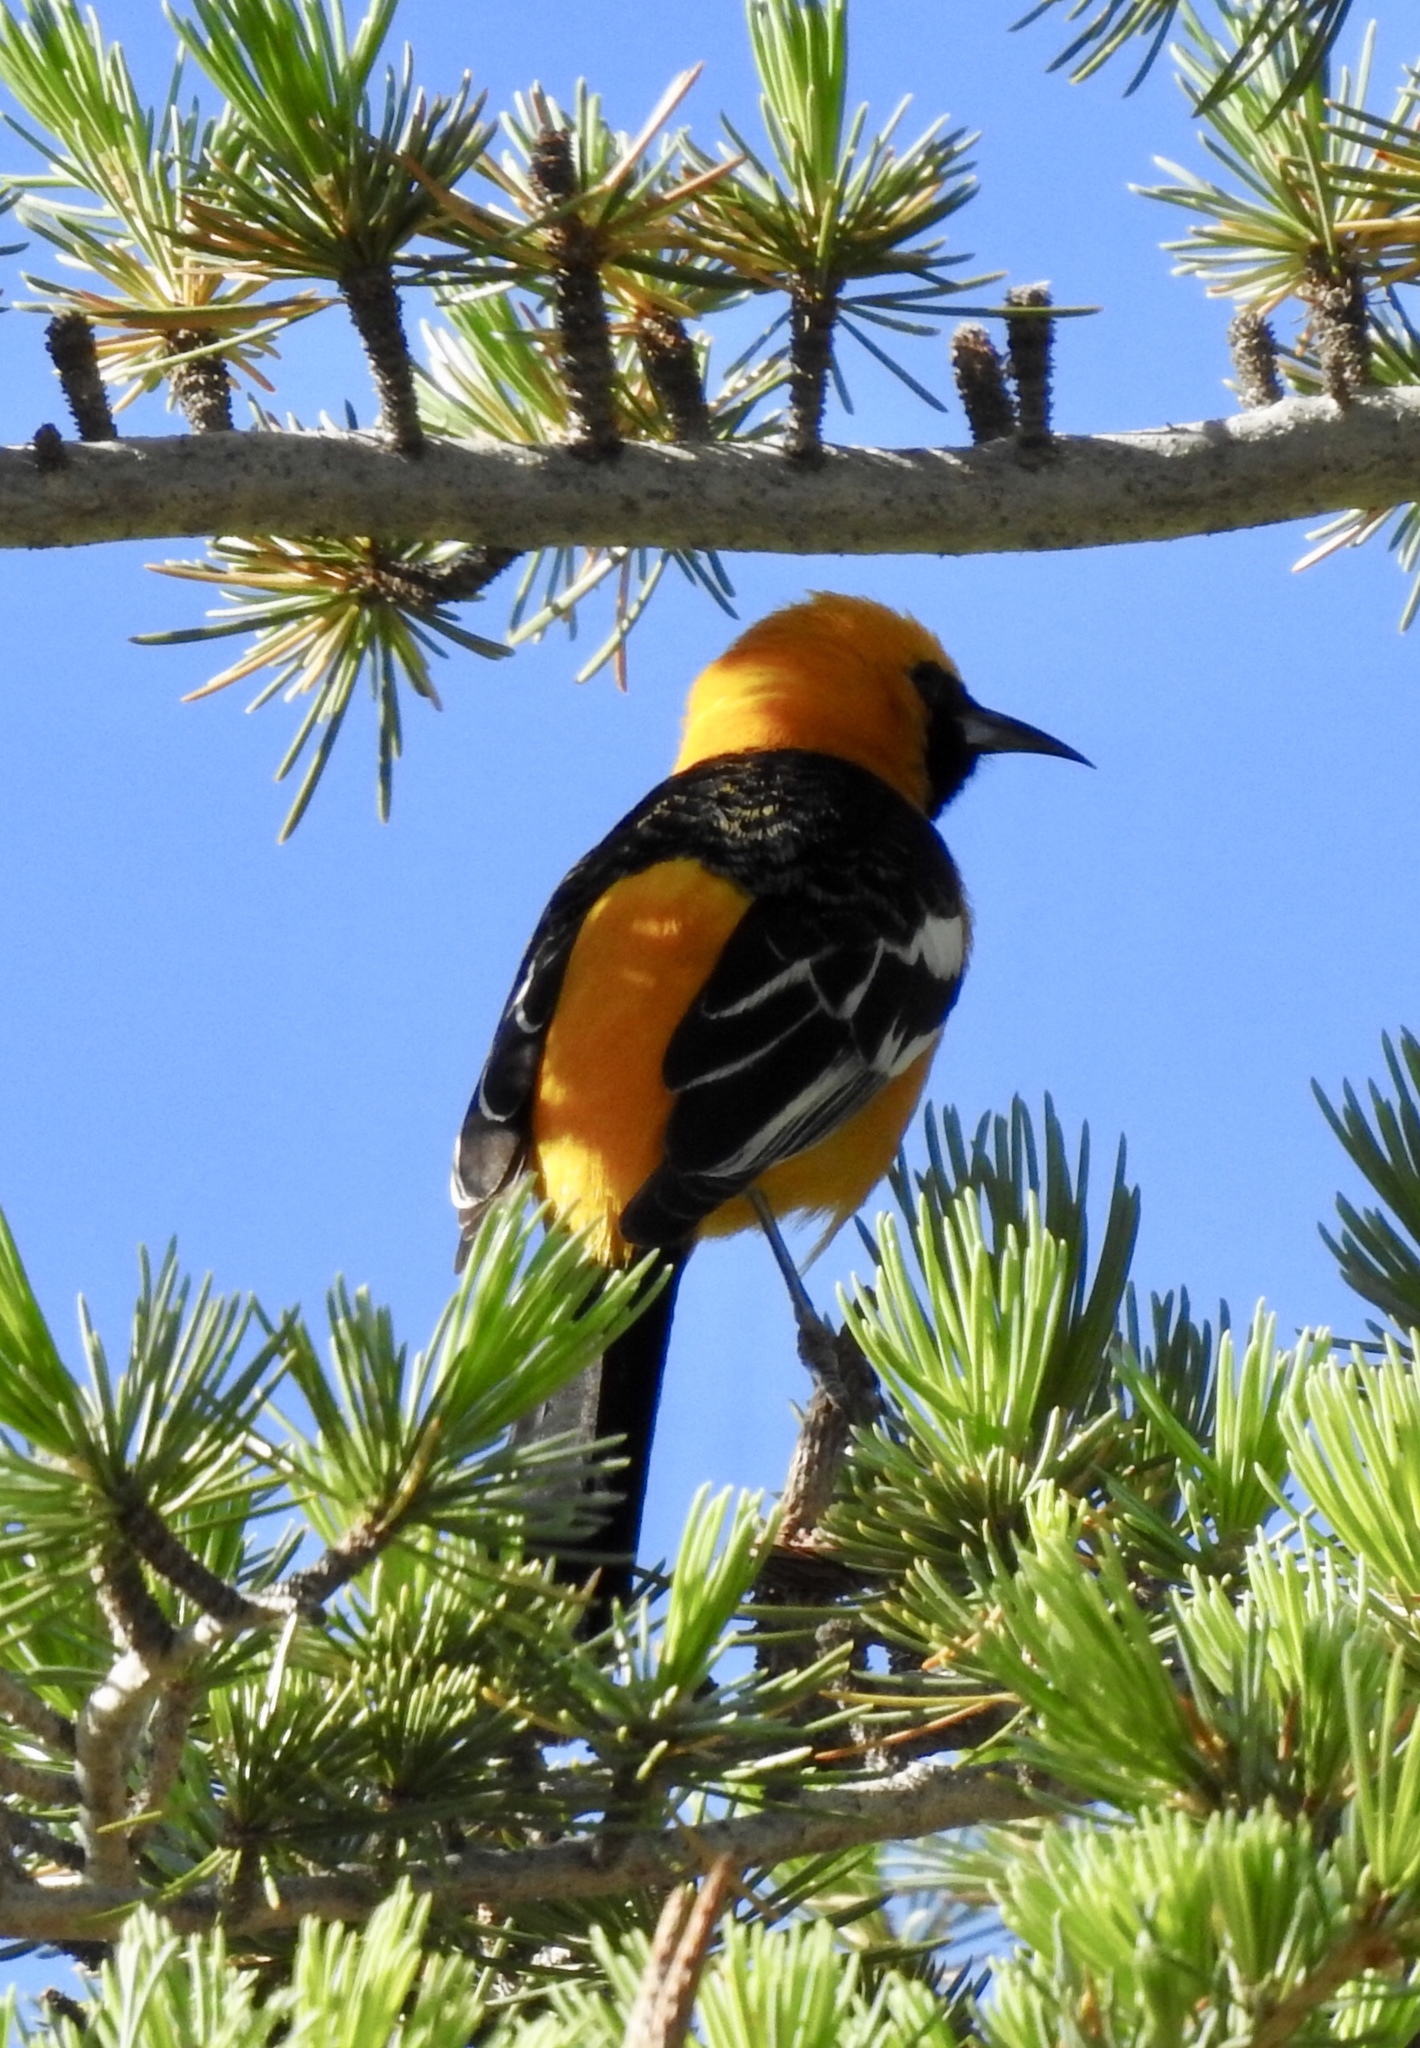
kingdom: Animalia
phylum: Chordata
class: Aves
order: Passeriformes
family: Icteridae
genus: Icterus
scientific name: Icterus cucullatus
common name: Hooded oriole
